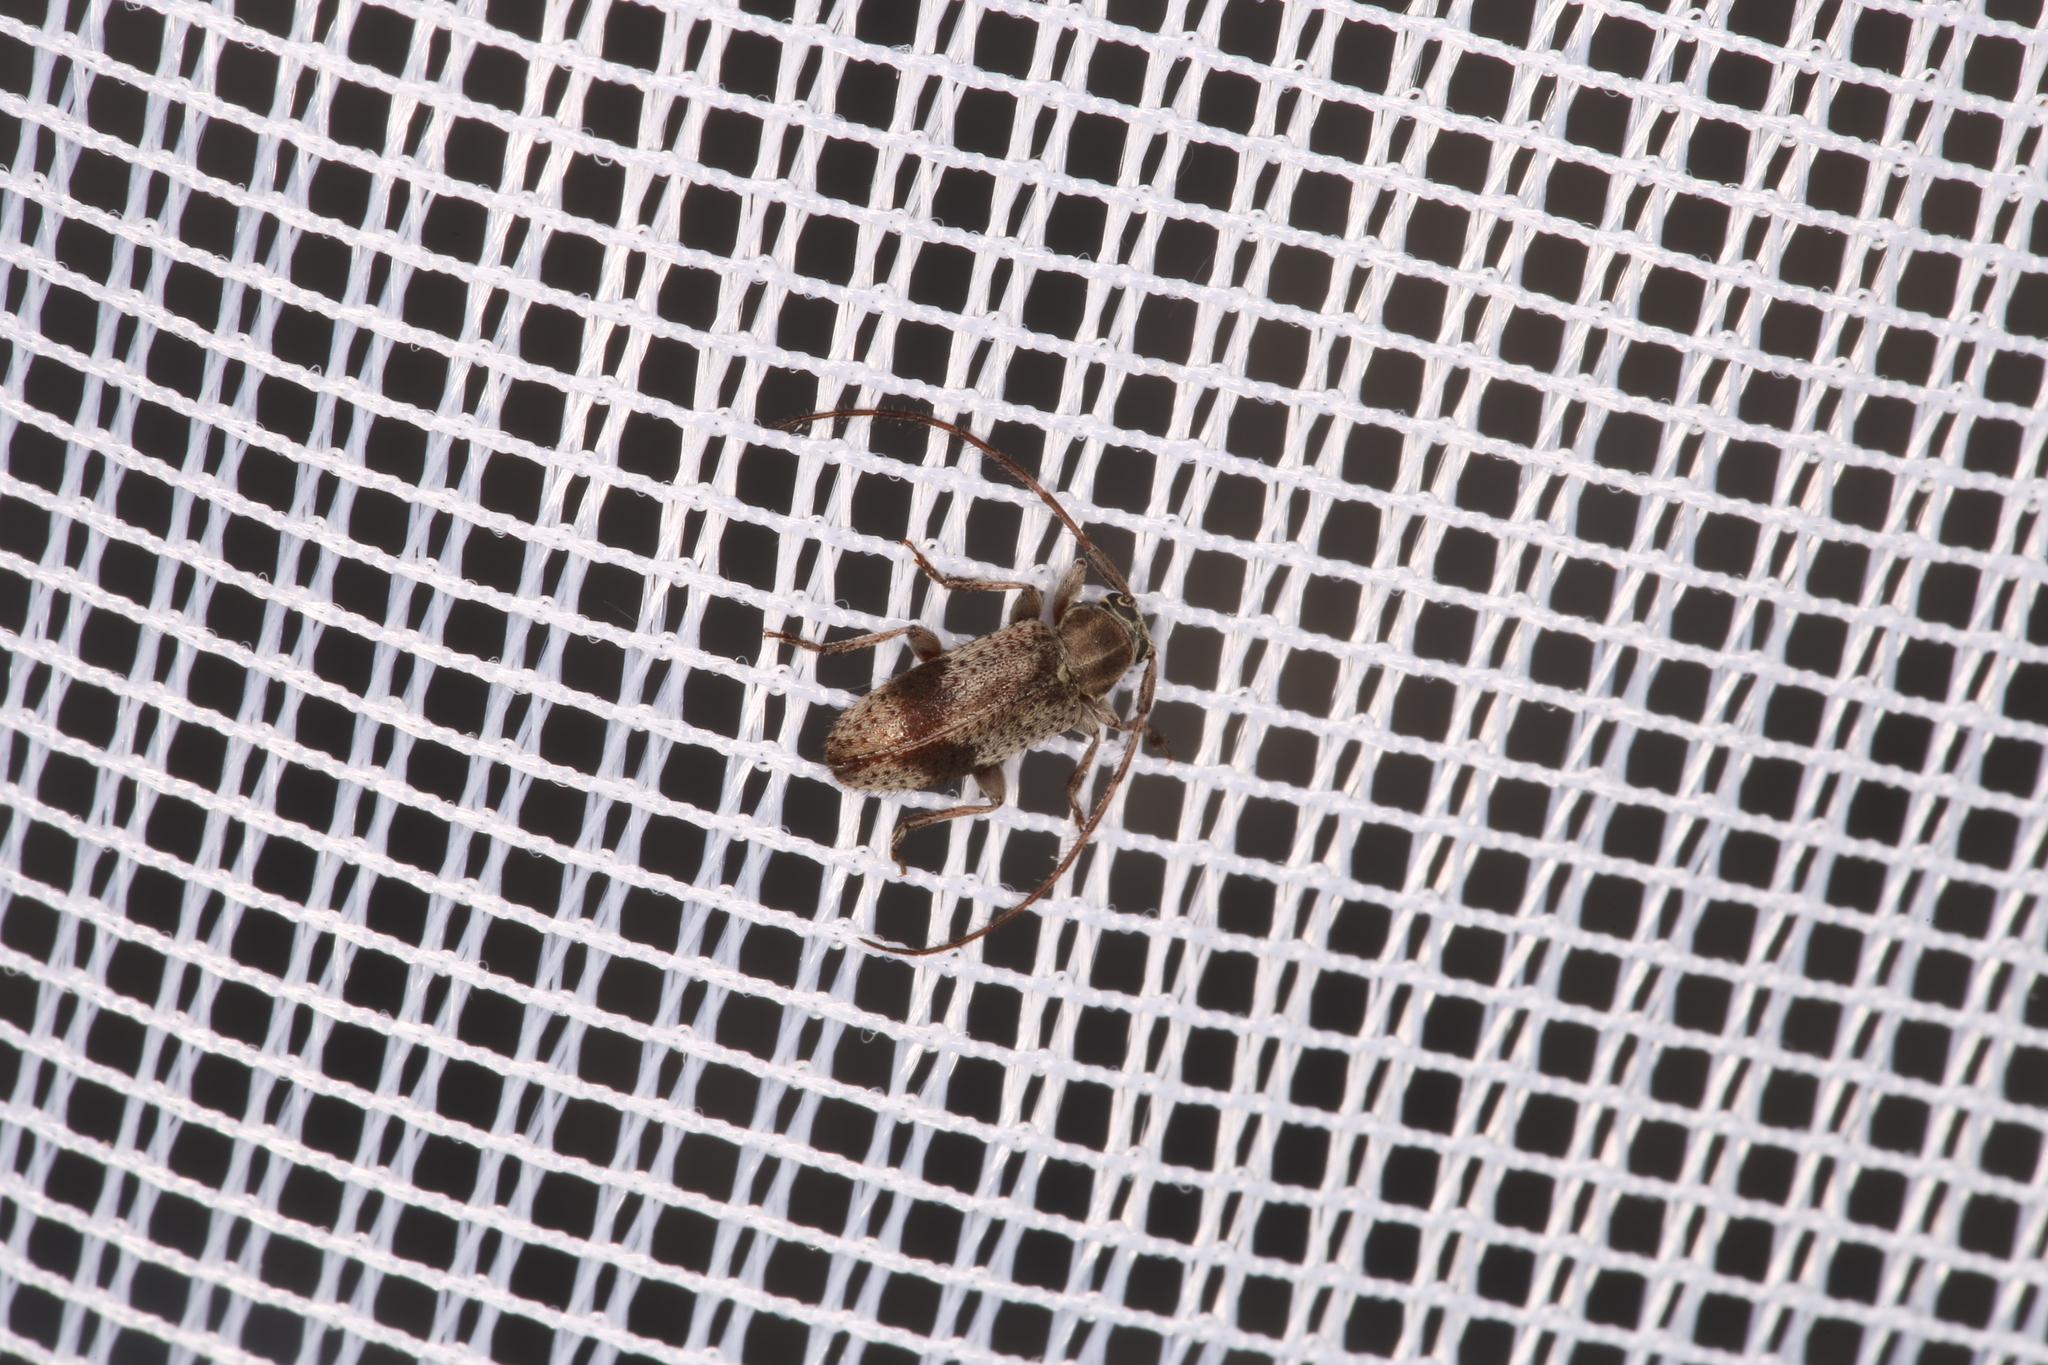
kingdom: Animalia
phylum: Arthropoda
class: Insecta
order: Coleoptera
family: Cerambycidae
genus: Exocentrus
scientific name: Exocentrus punctipennis
